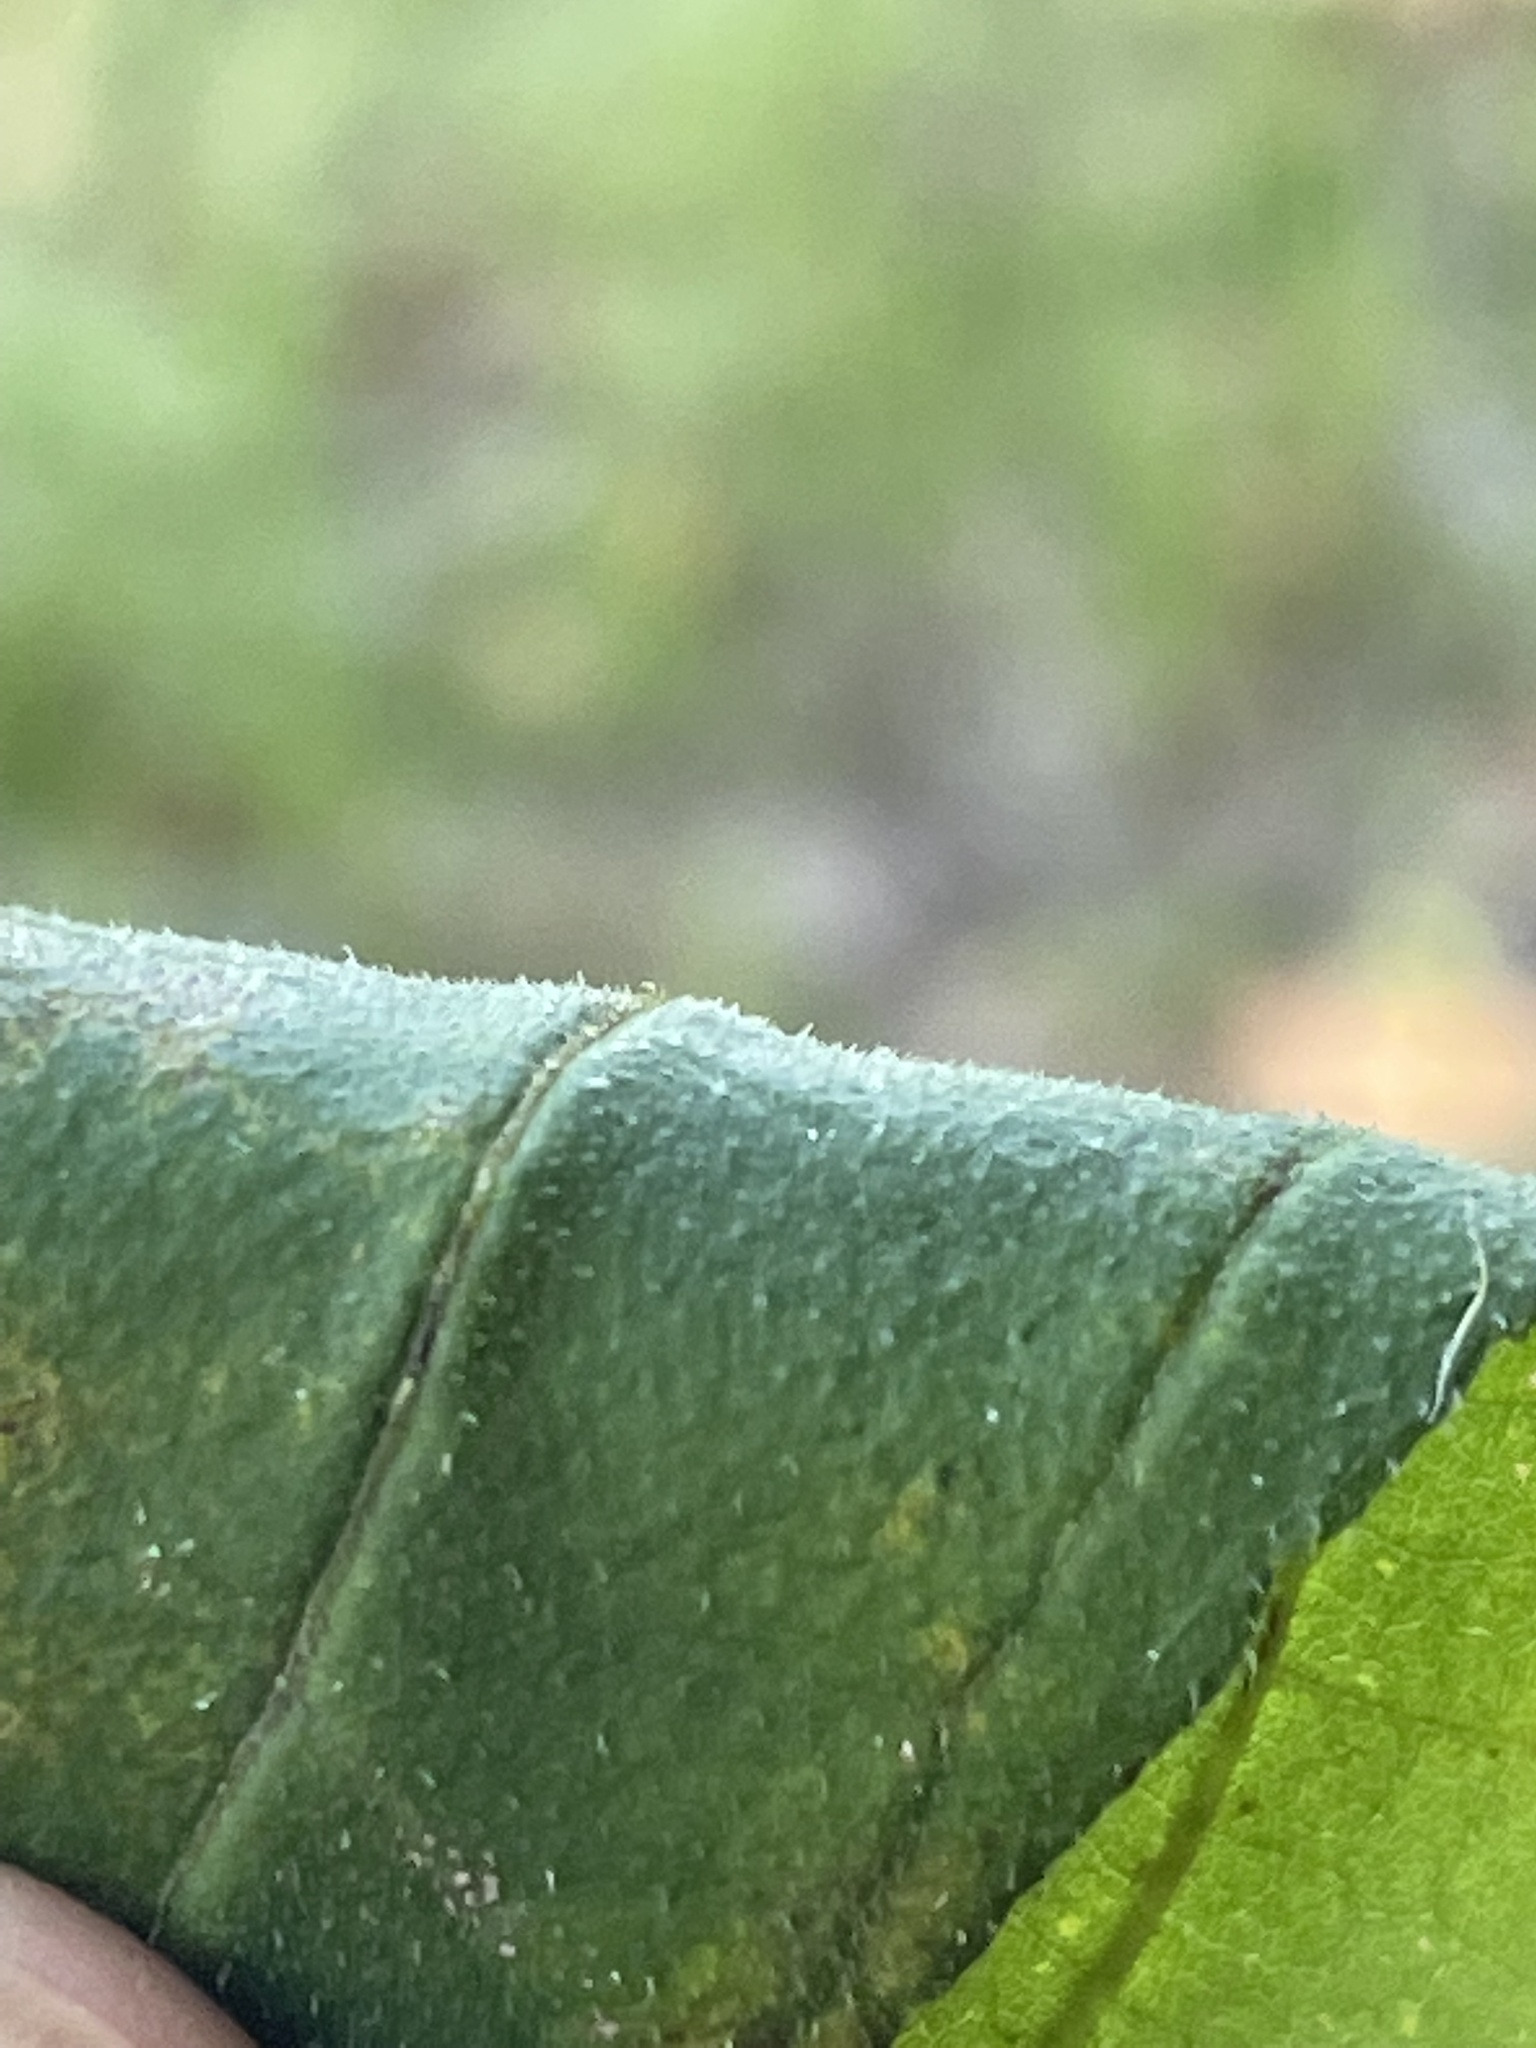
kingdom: Plantae
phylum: Tracheophyta
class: Magnoliopsida
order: Asterales
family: Asteraceae
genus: Helianthus
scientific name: Helianthus divaricatus
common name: Divergent sunflower
